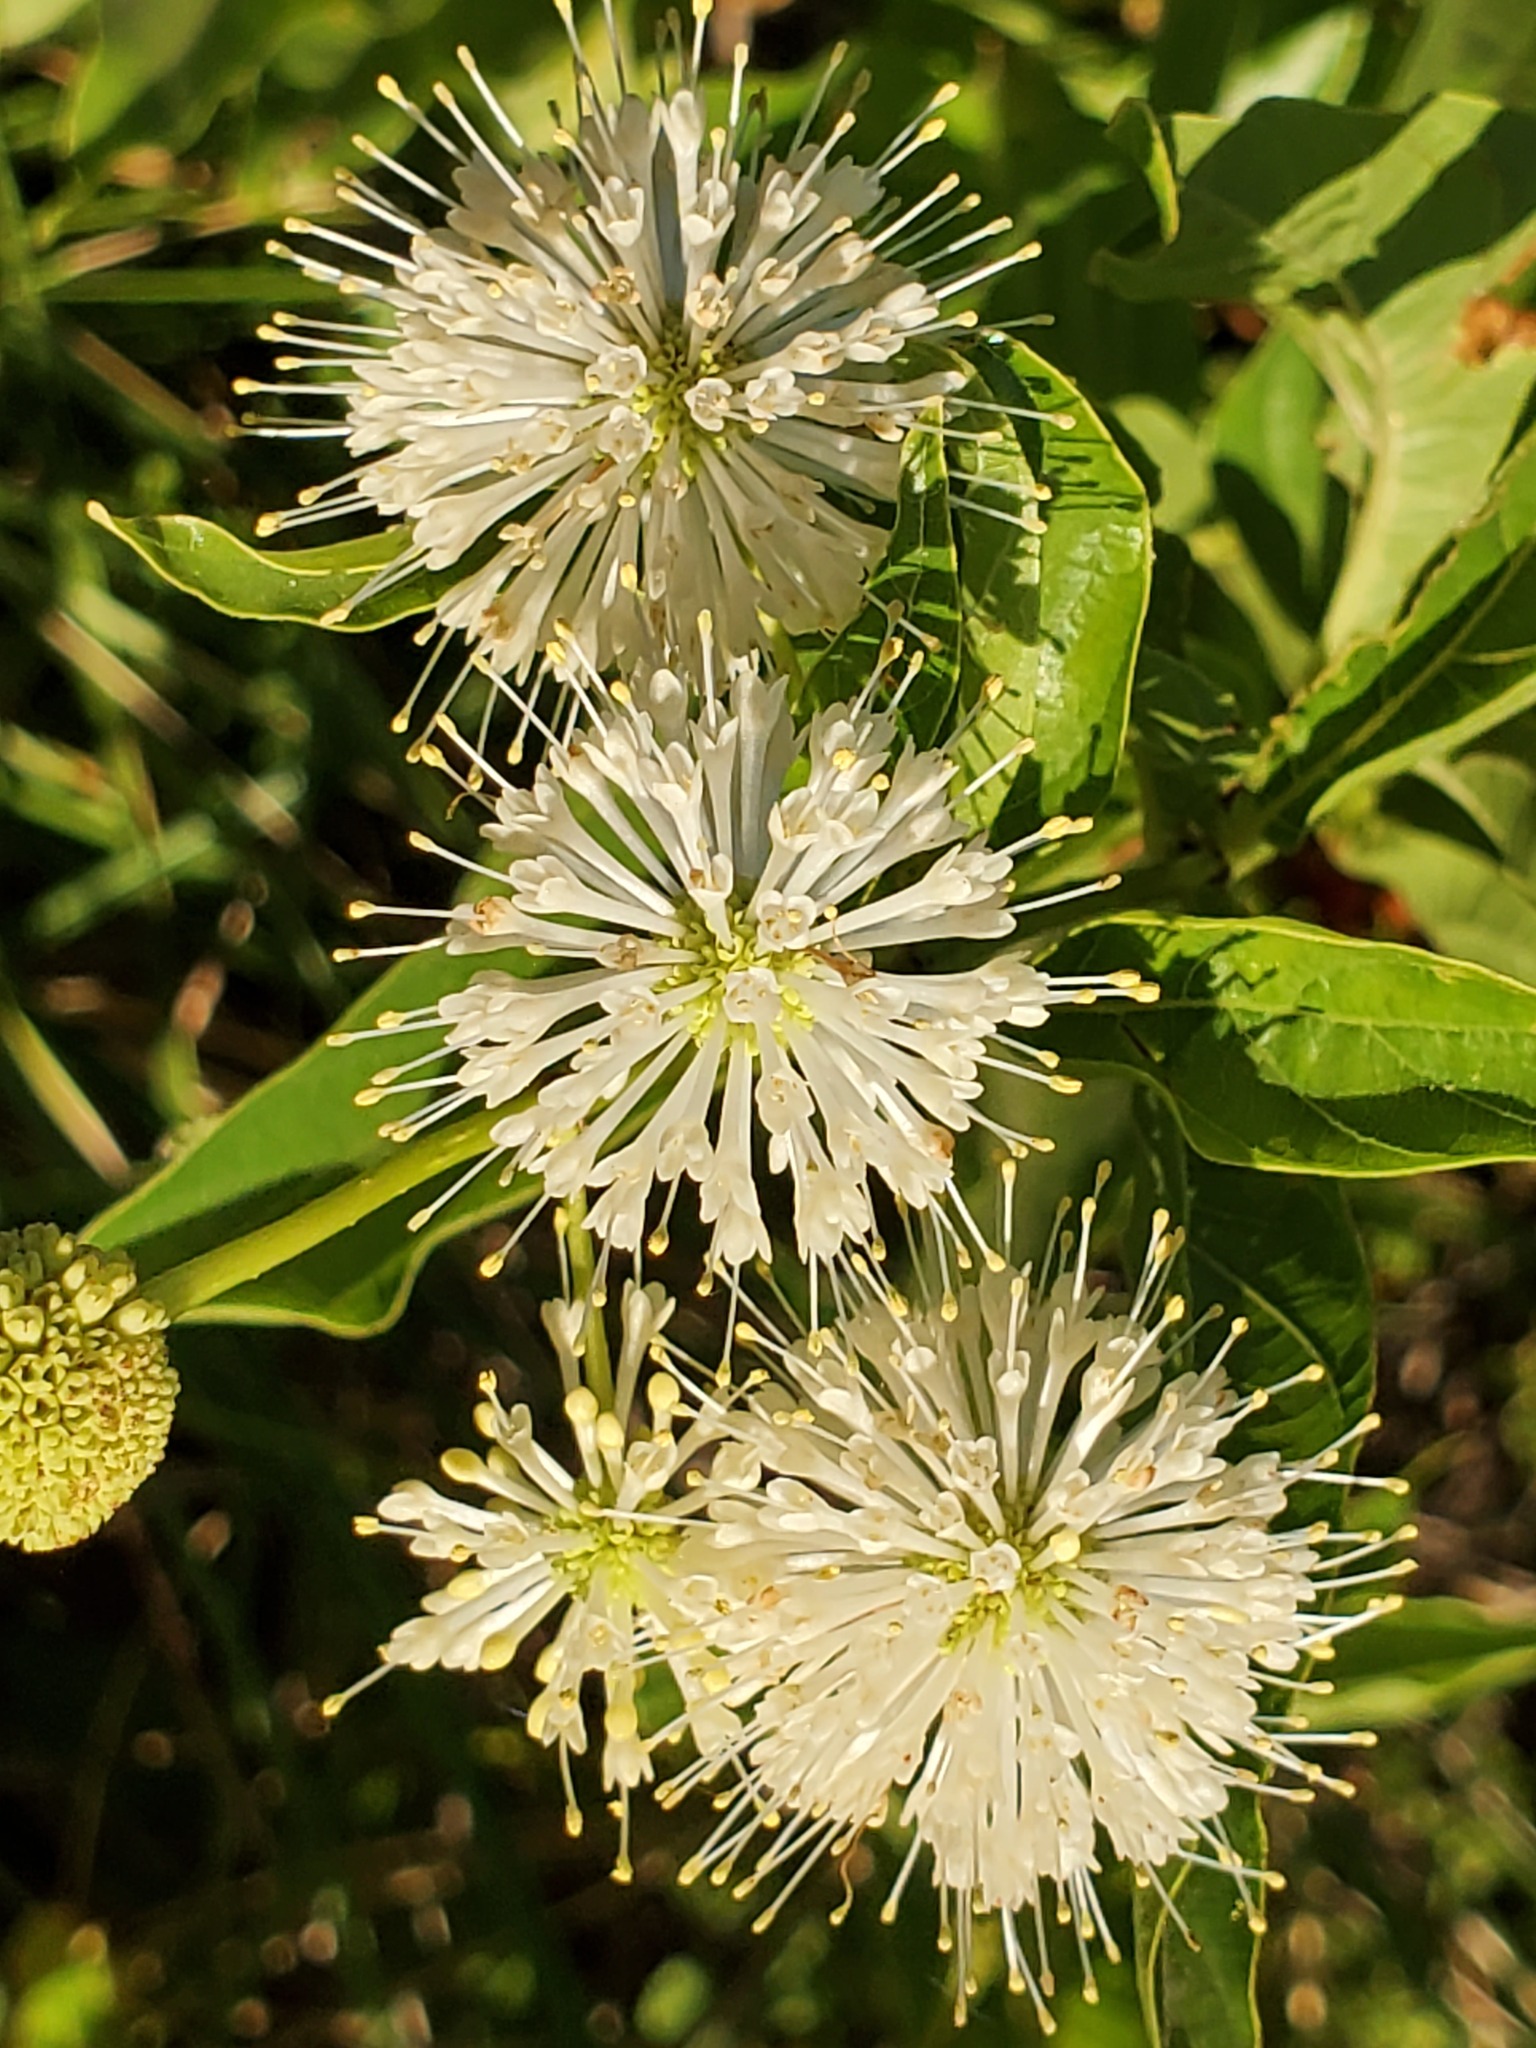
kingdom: Plantae
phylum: Tracheophyta
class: Magnoliopsida
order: Gentianales
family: Rubiaceae
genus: Cephalanthus
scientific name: Cephalanthus occidentalis
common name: Button-willow
